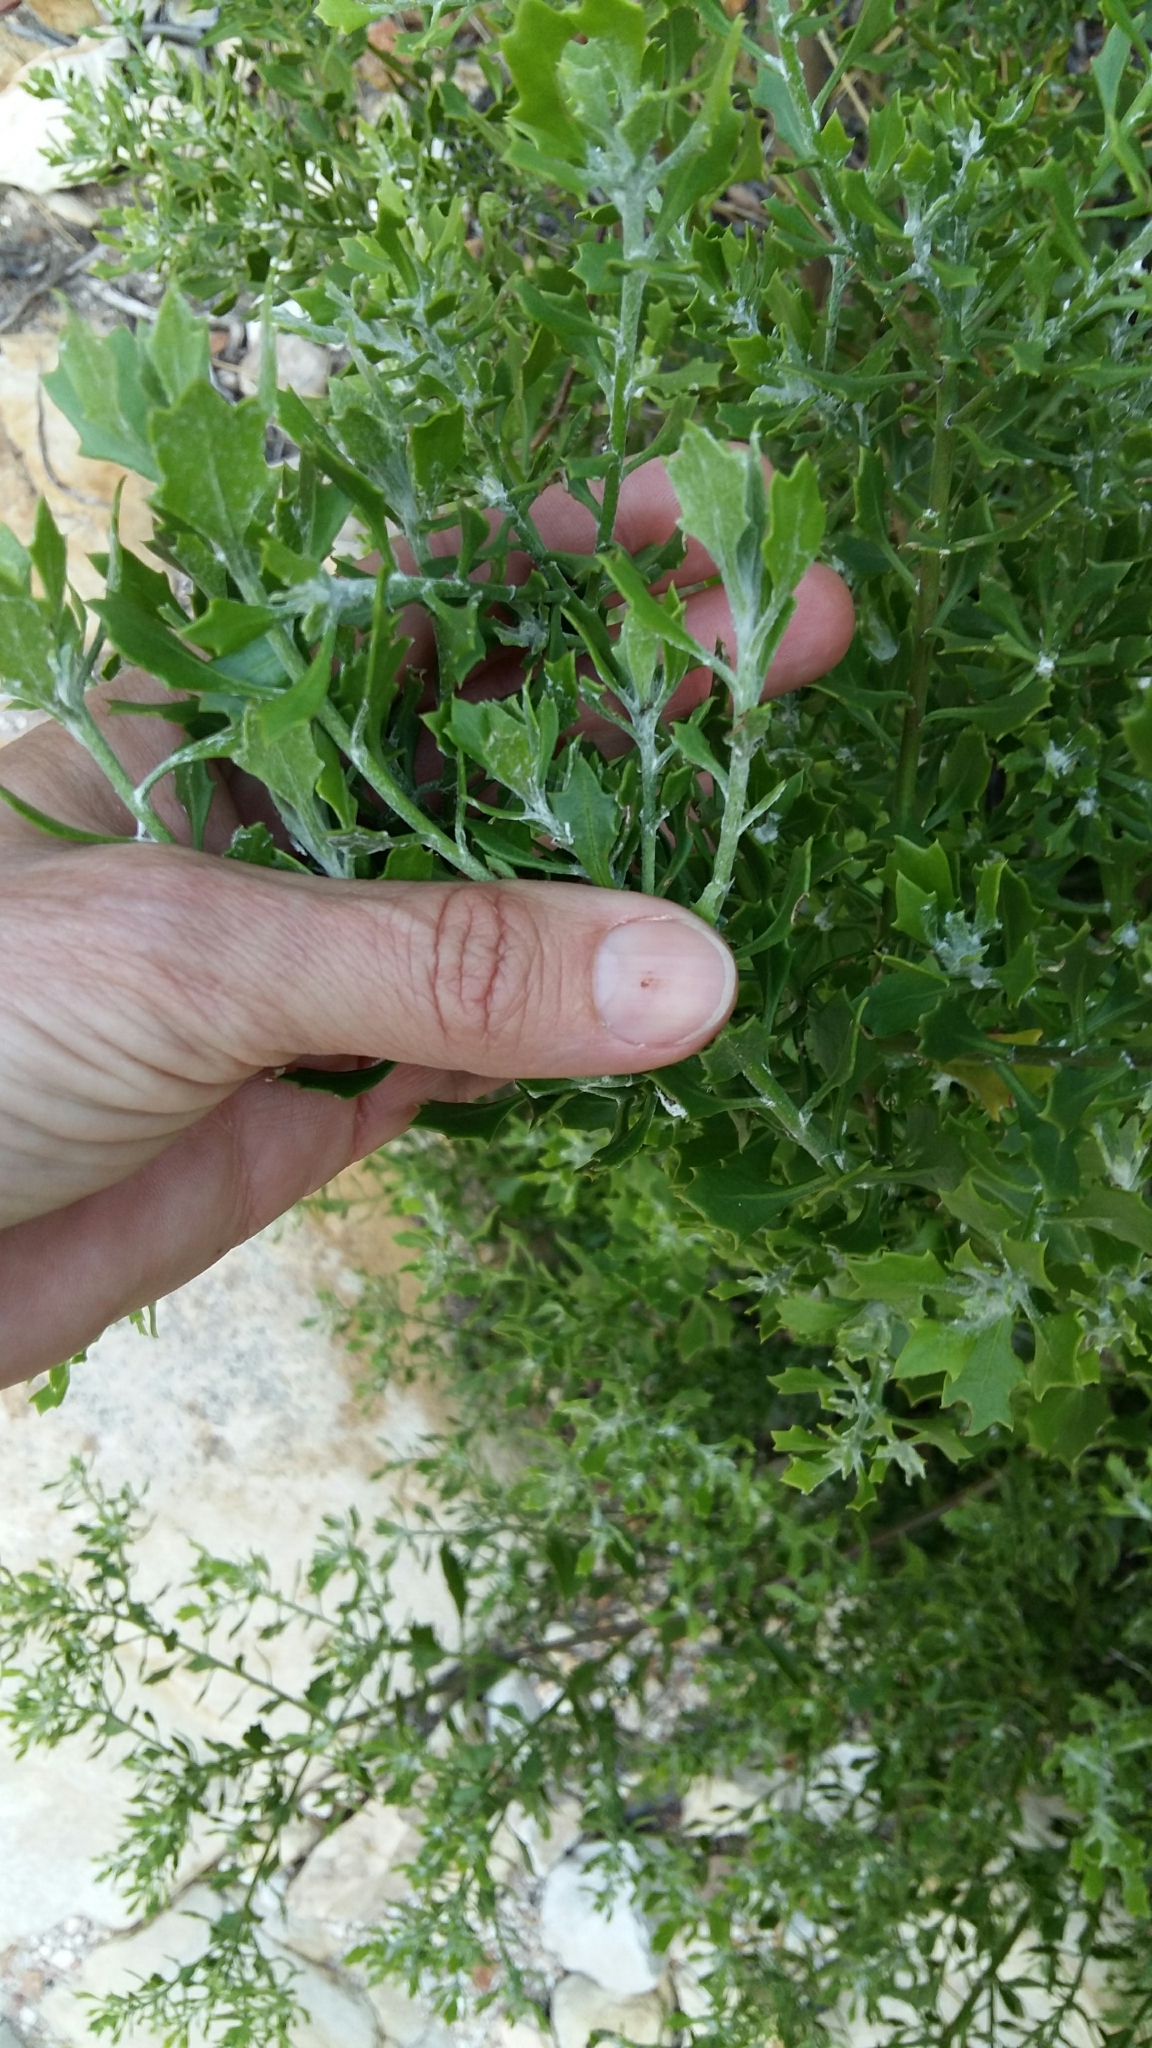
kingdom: Plantae
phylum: Tracheophyta
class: Magnoliopsida
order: Asterales
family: Asteraceae
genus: Osteospermum
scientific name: Osteospermum moniliferum
